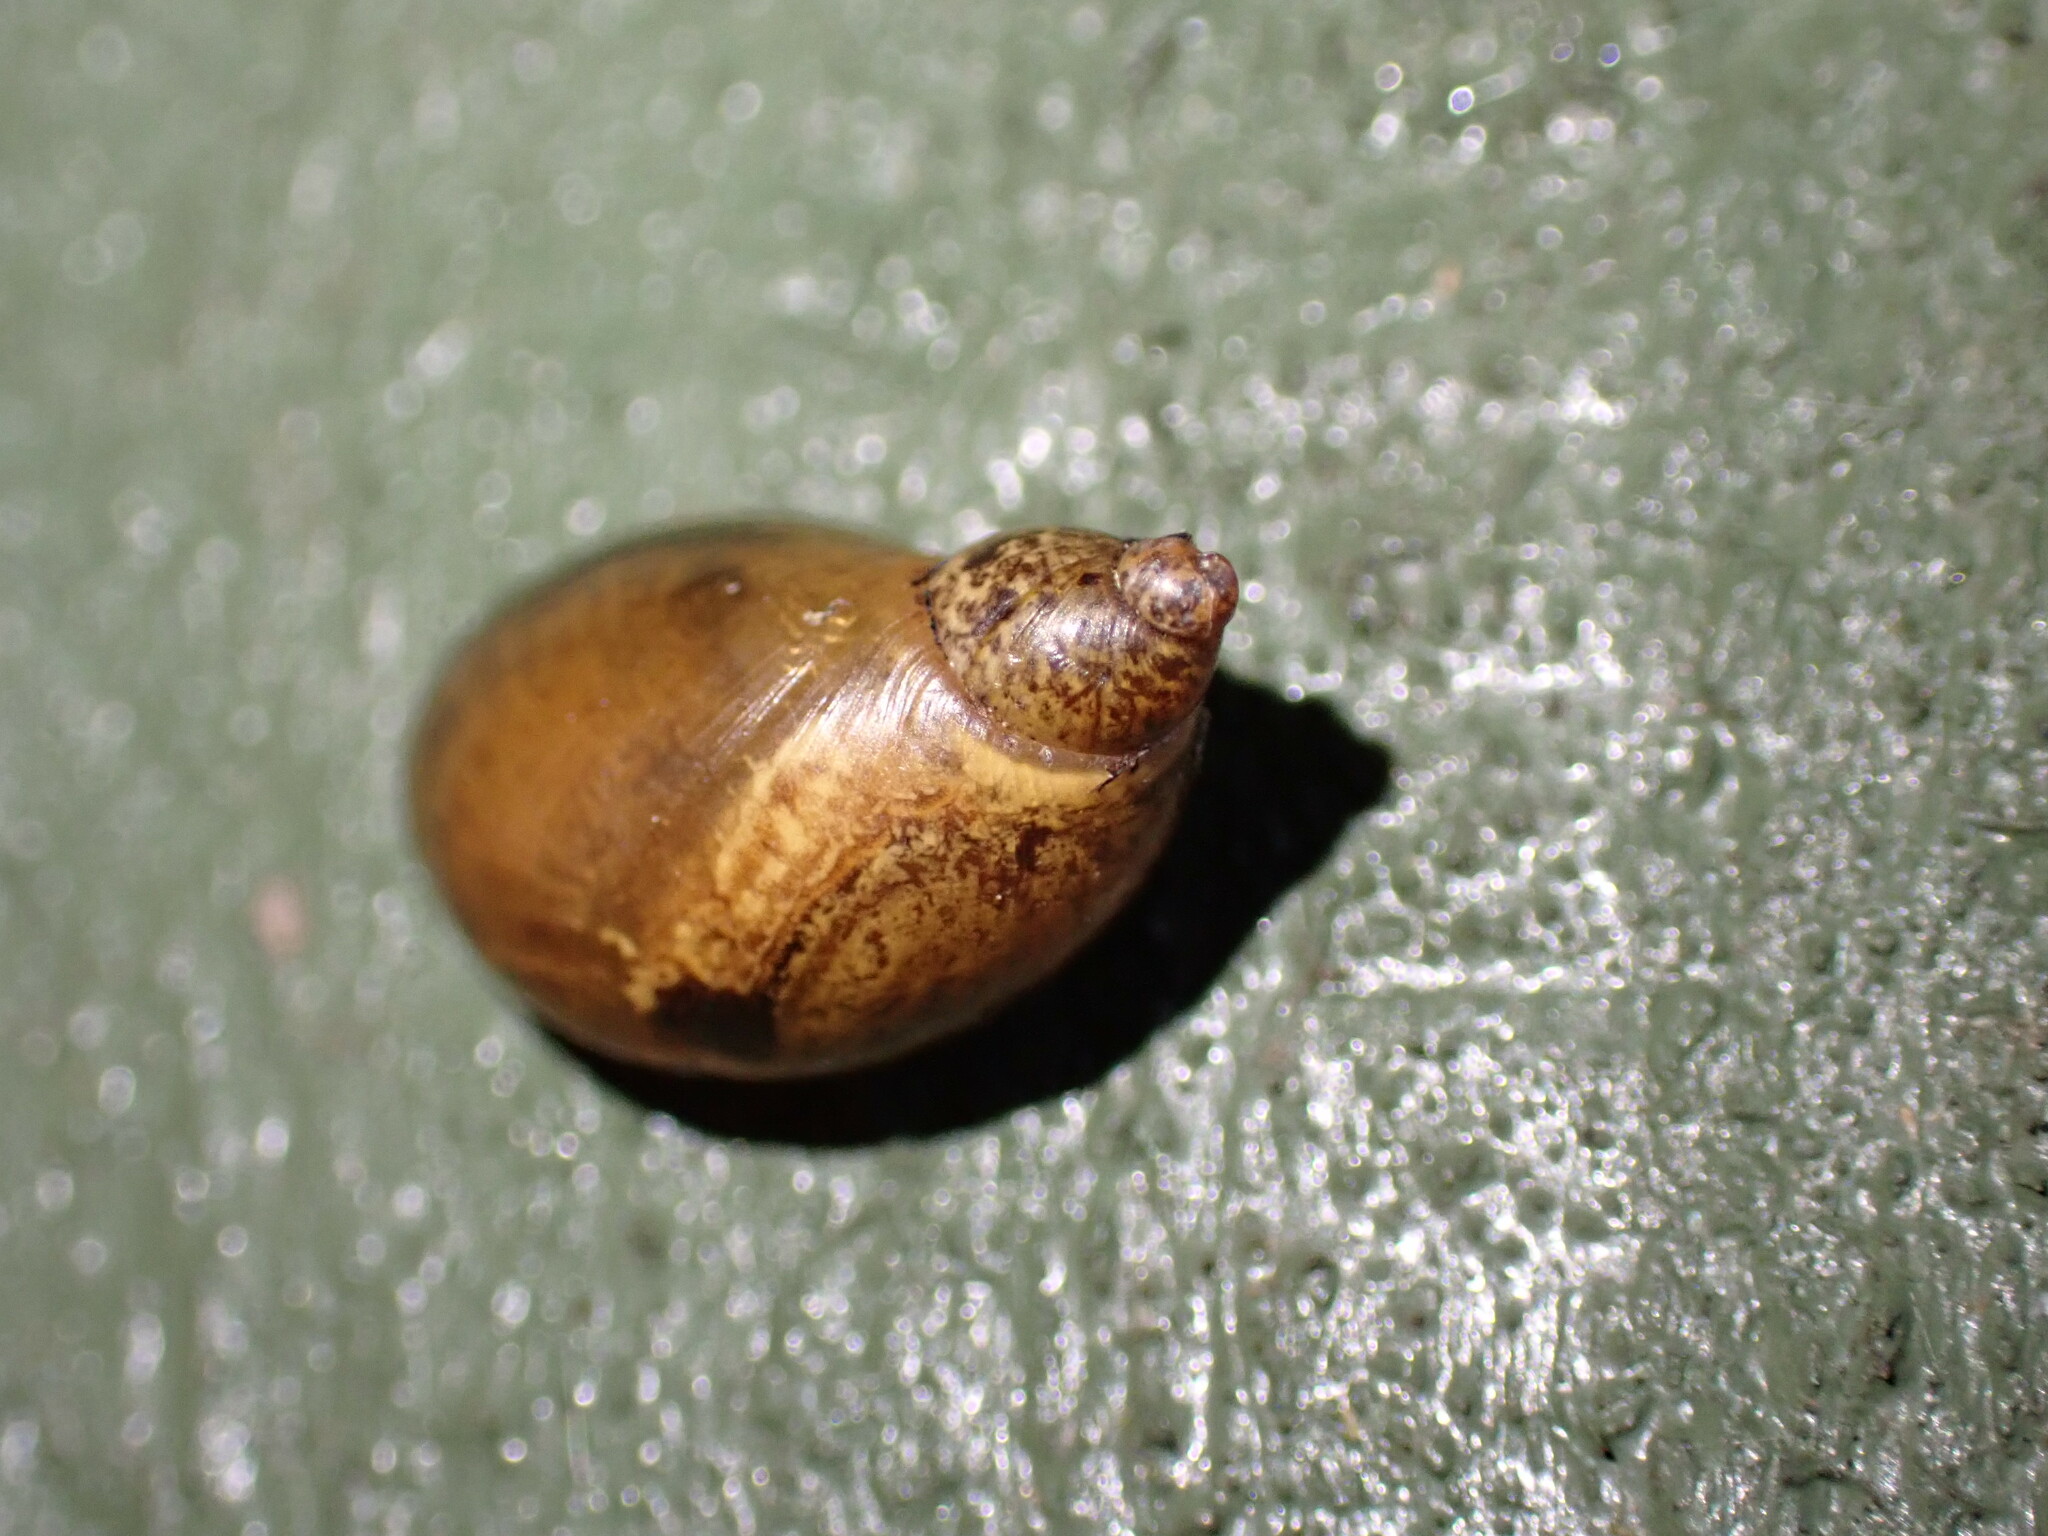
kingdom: Animalia
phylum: Mollusca
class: Gastropoda
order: Stylommatophora
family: Succineidae
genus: Succinea
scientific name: Succinea putris
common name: European ambersnail
